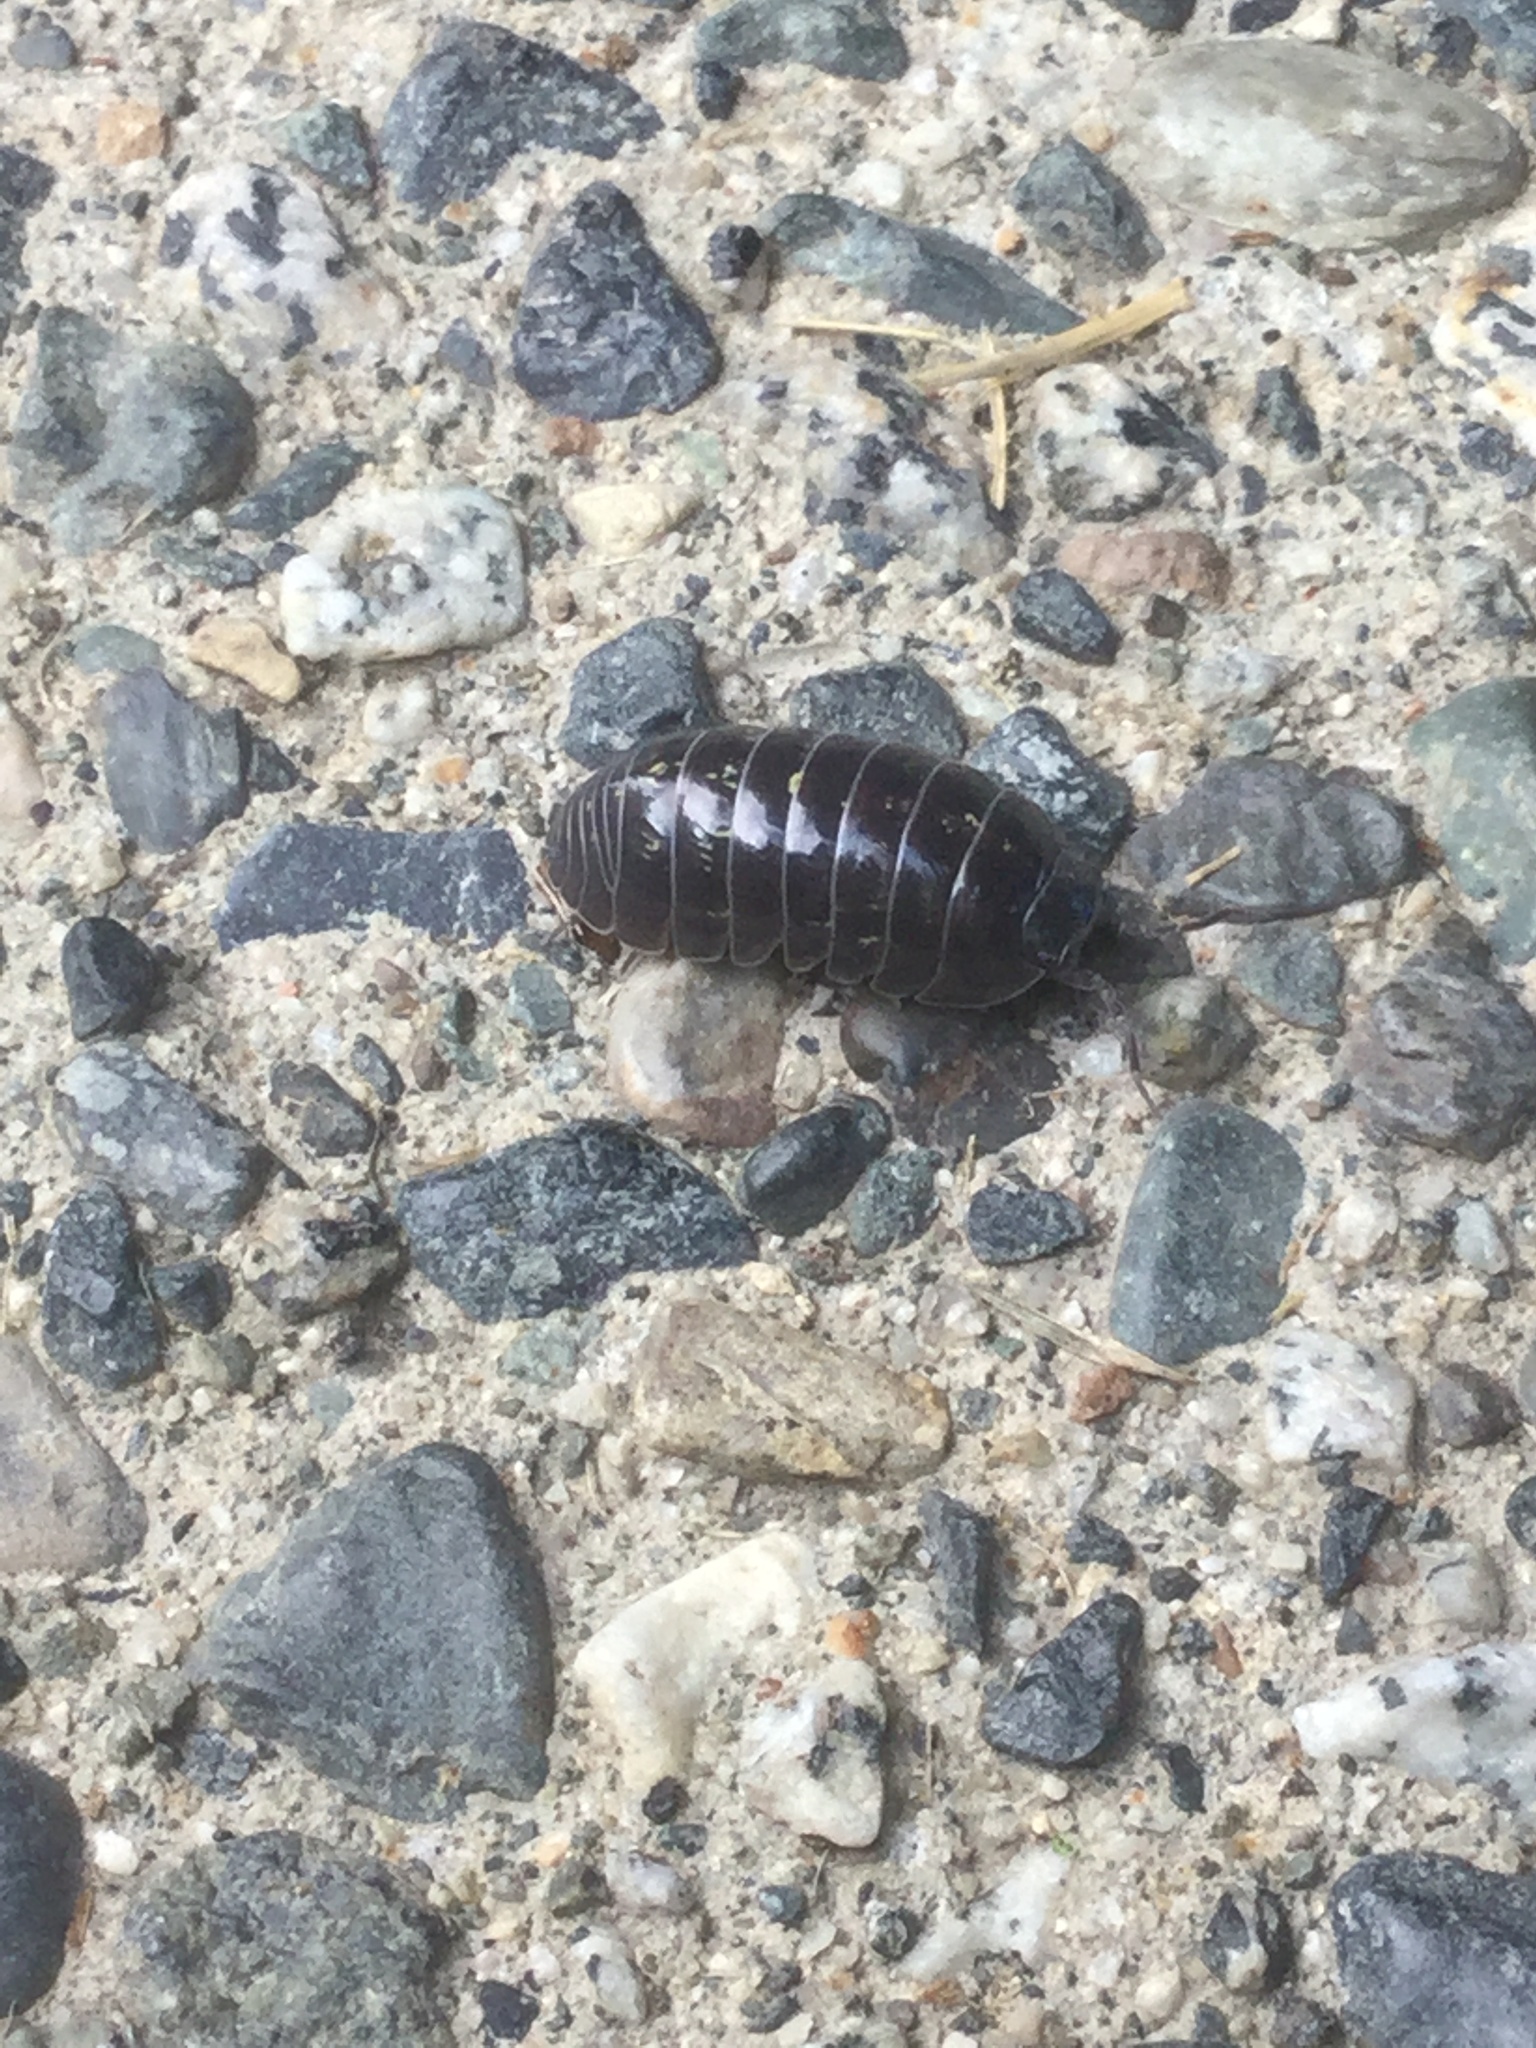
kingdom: Animalia
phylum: Arthropoda
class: Malacostraca
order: Isopoda
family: Armadillidiidae
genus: Armadillidium
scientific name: Armadillidium vulgare
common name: Common pill woodlouse
